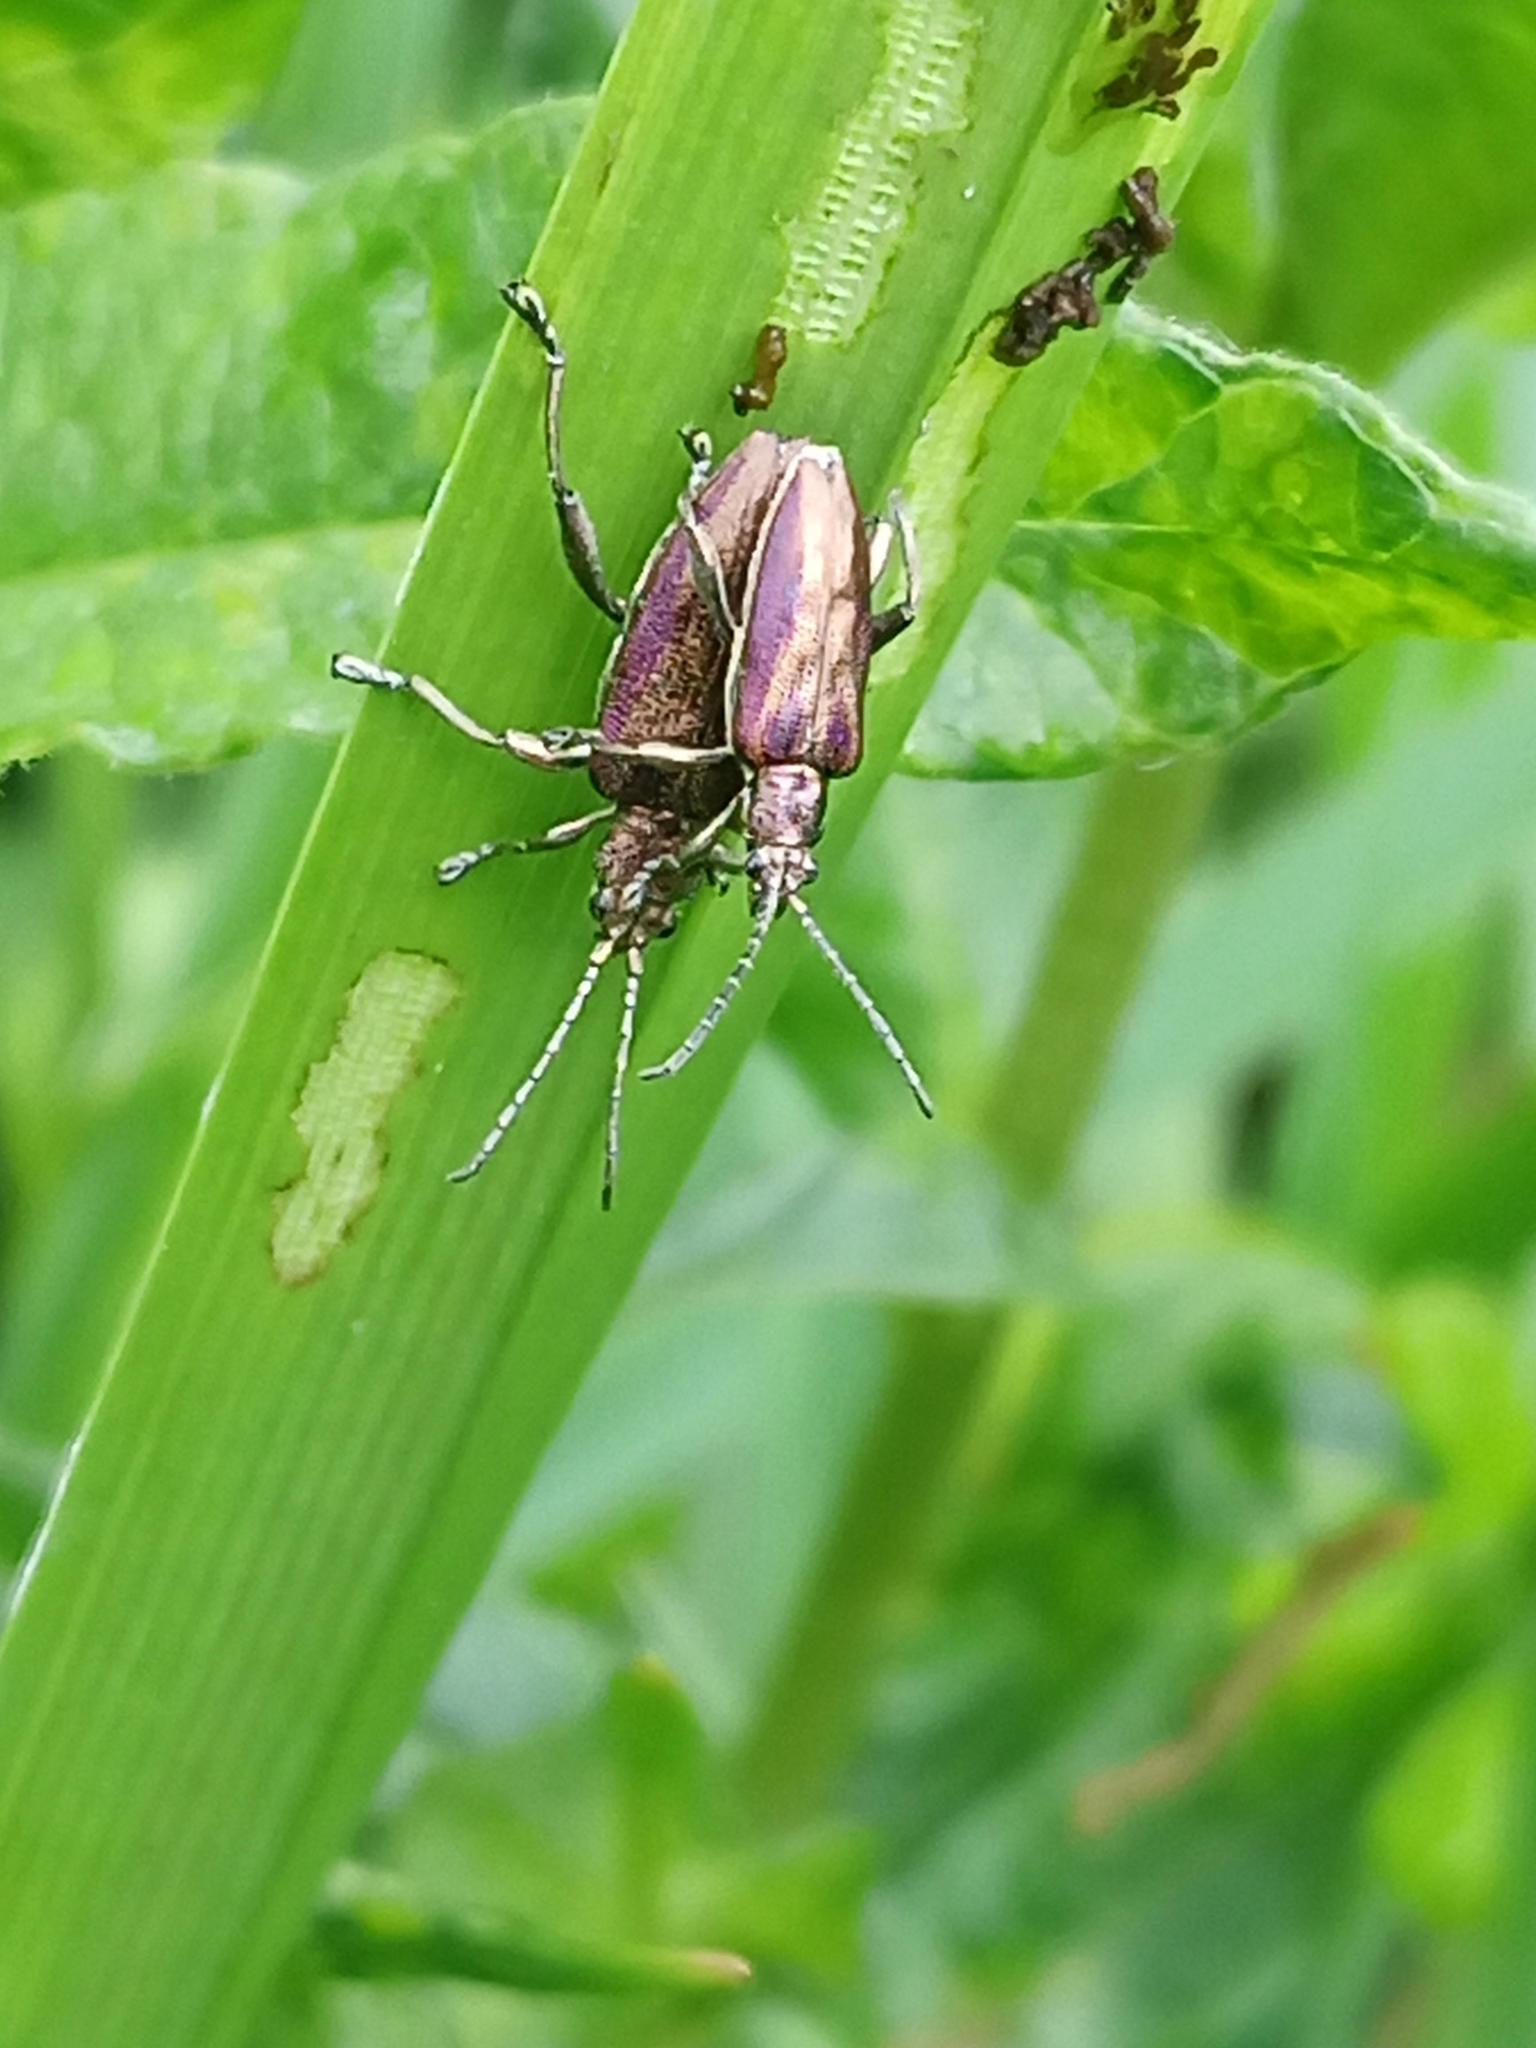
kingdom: Animalia
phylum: Arthropoda
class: Insecta
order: Coleoptera
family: Chrysomelidae
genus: Donacia
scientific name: Donacia marginata
